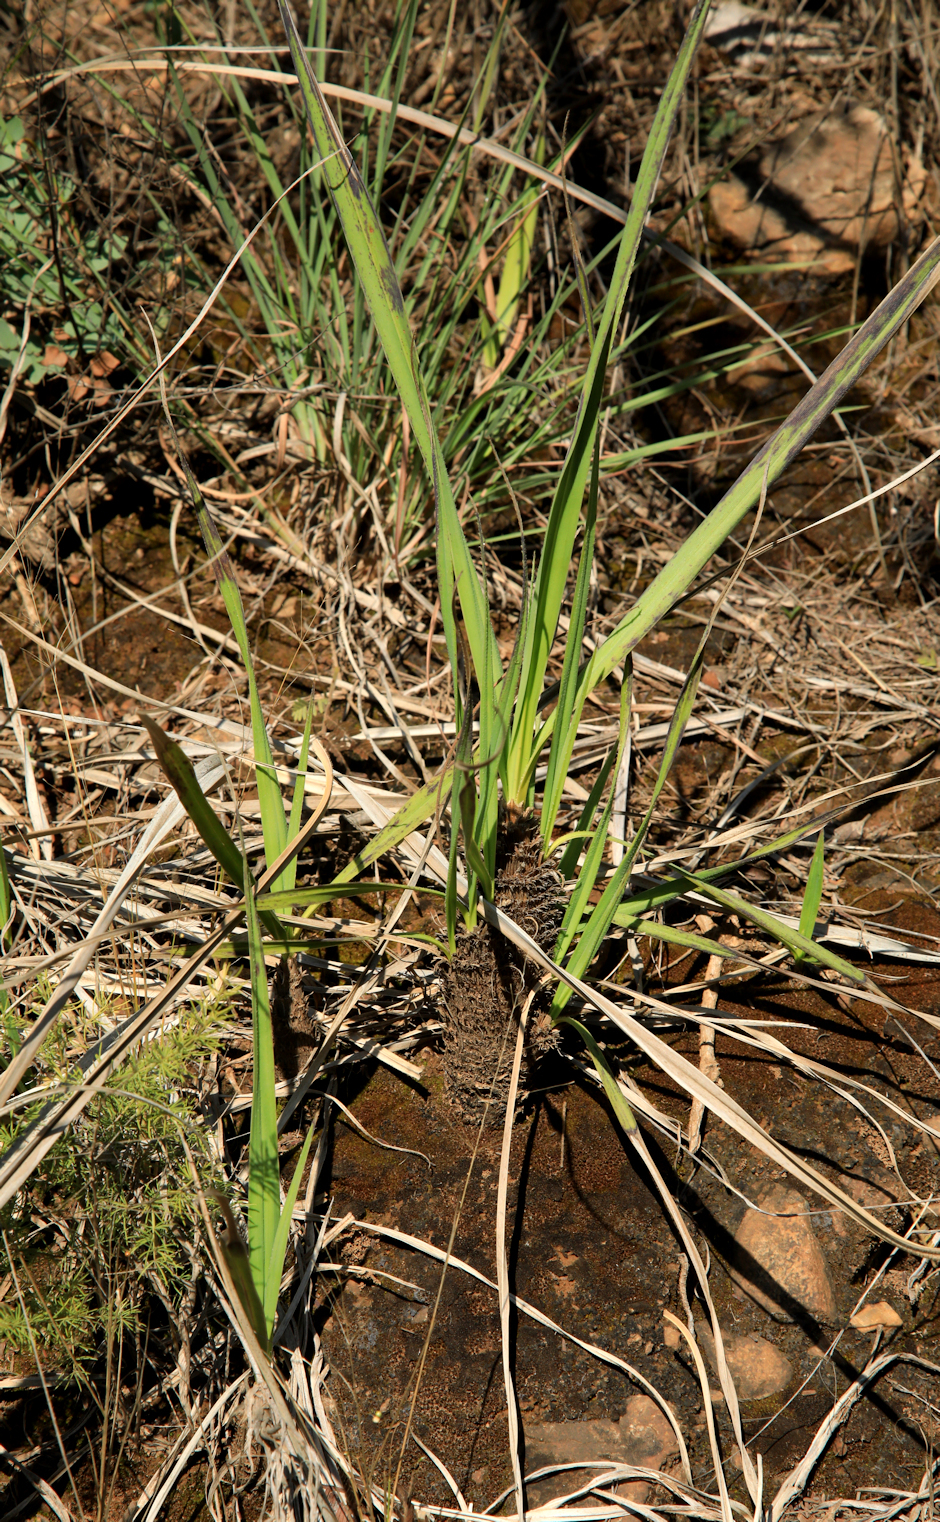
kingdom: Plantae
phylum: Tracheophyta
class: Liliopsida
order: Pandanales
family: Velloziaceae
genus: Xerophyta
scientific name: Xerophyta retinervis
